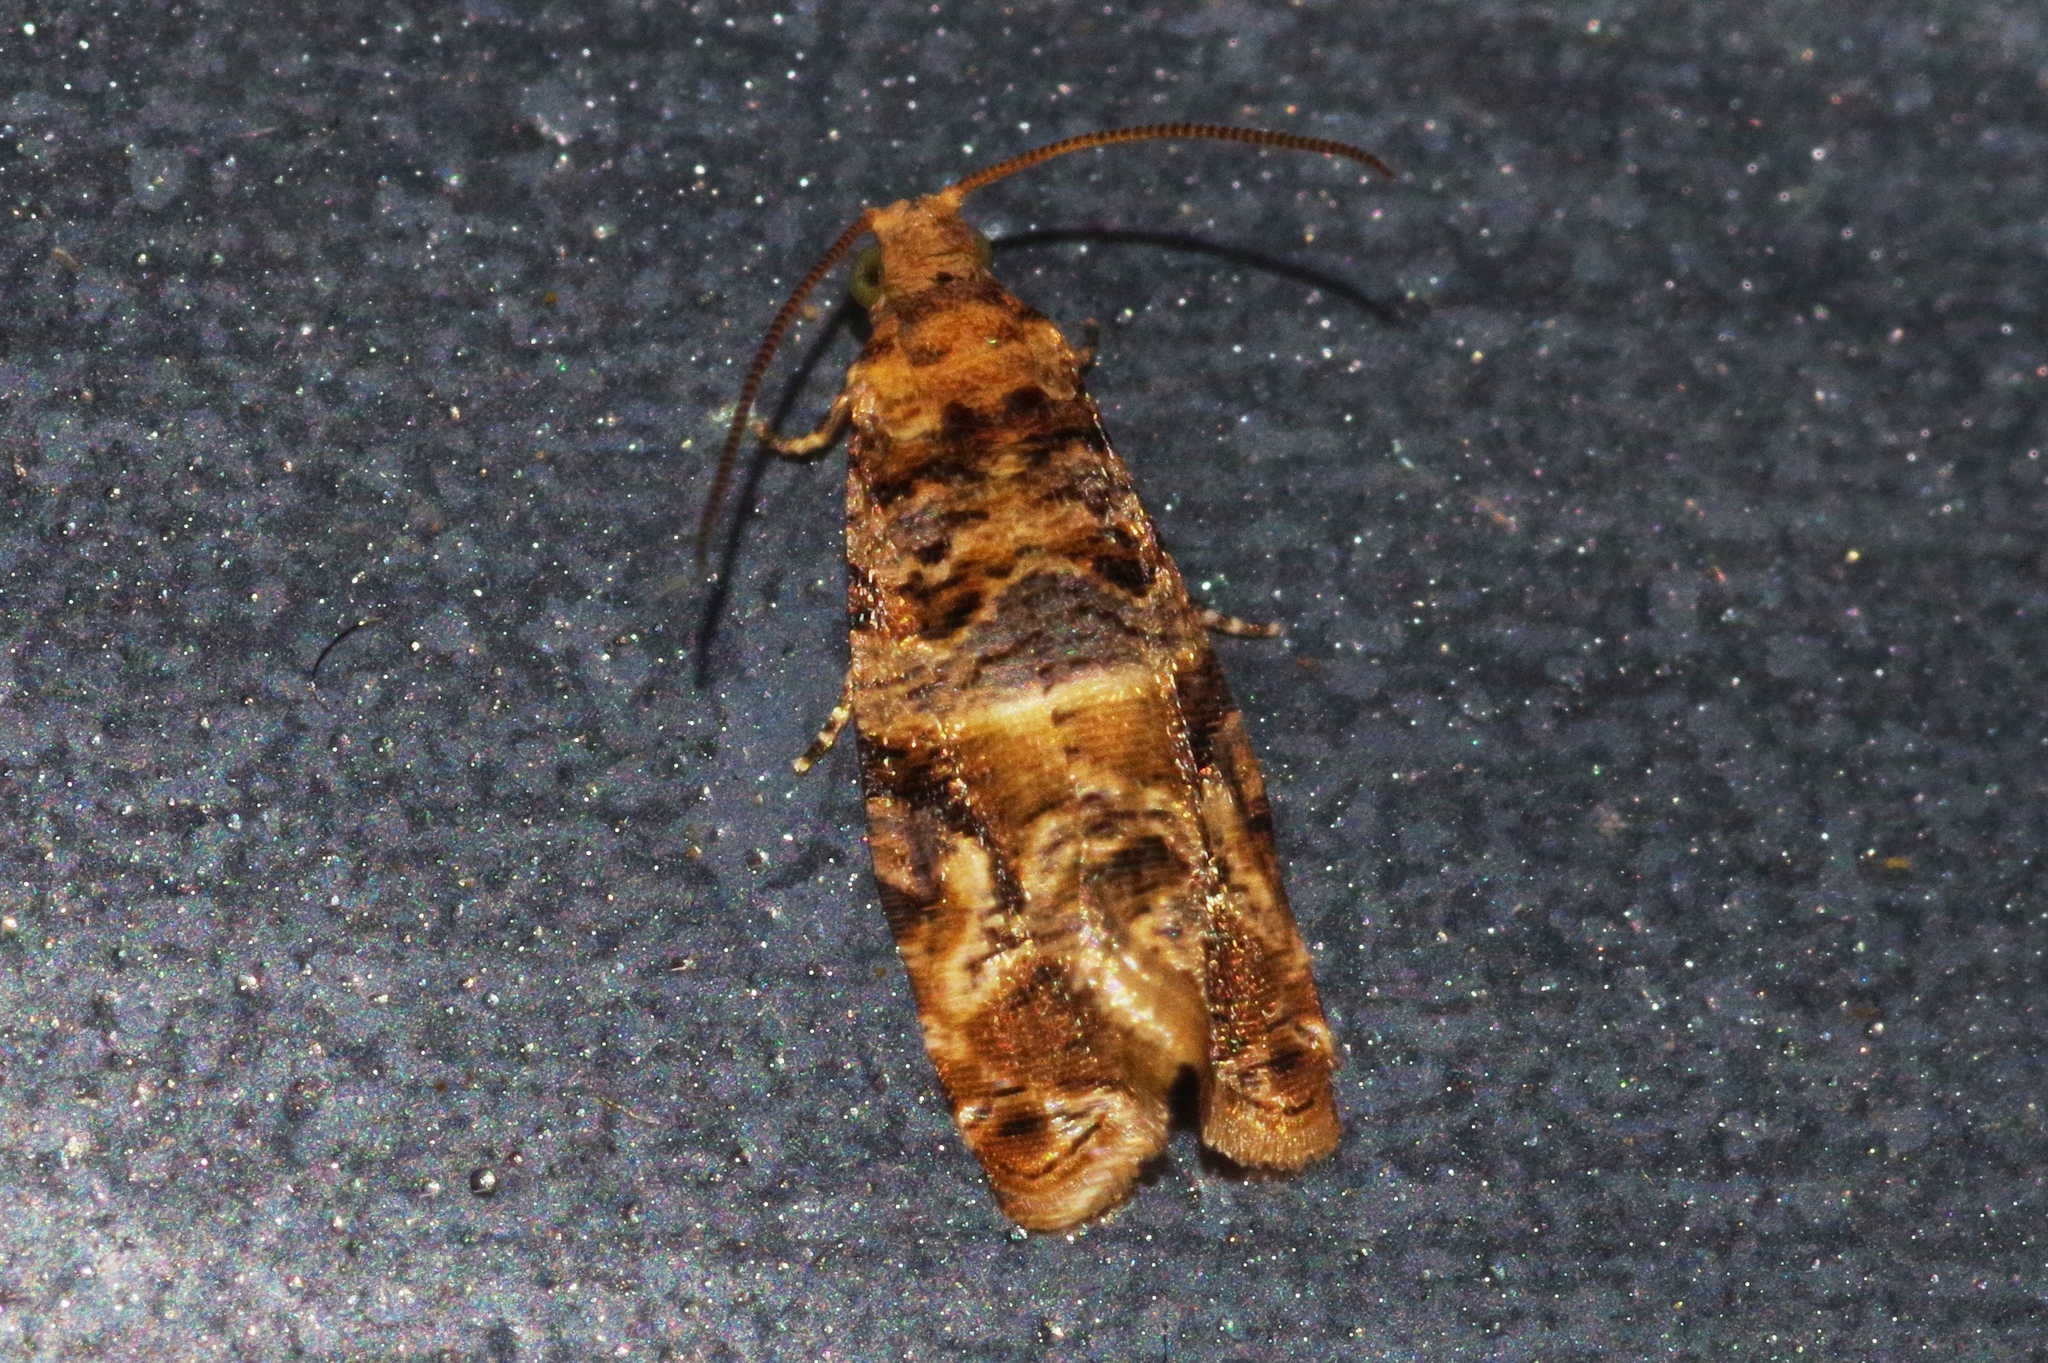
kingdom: Animalia
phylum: Arthropoda
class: Insecta
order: Lepidoptera
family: Tortricidae
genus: Lobesia
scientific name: Lobesia aeolopa
